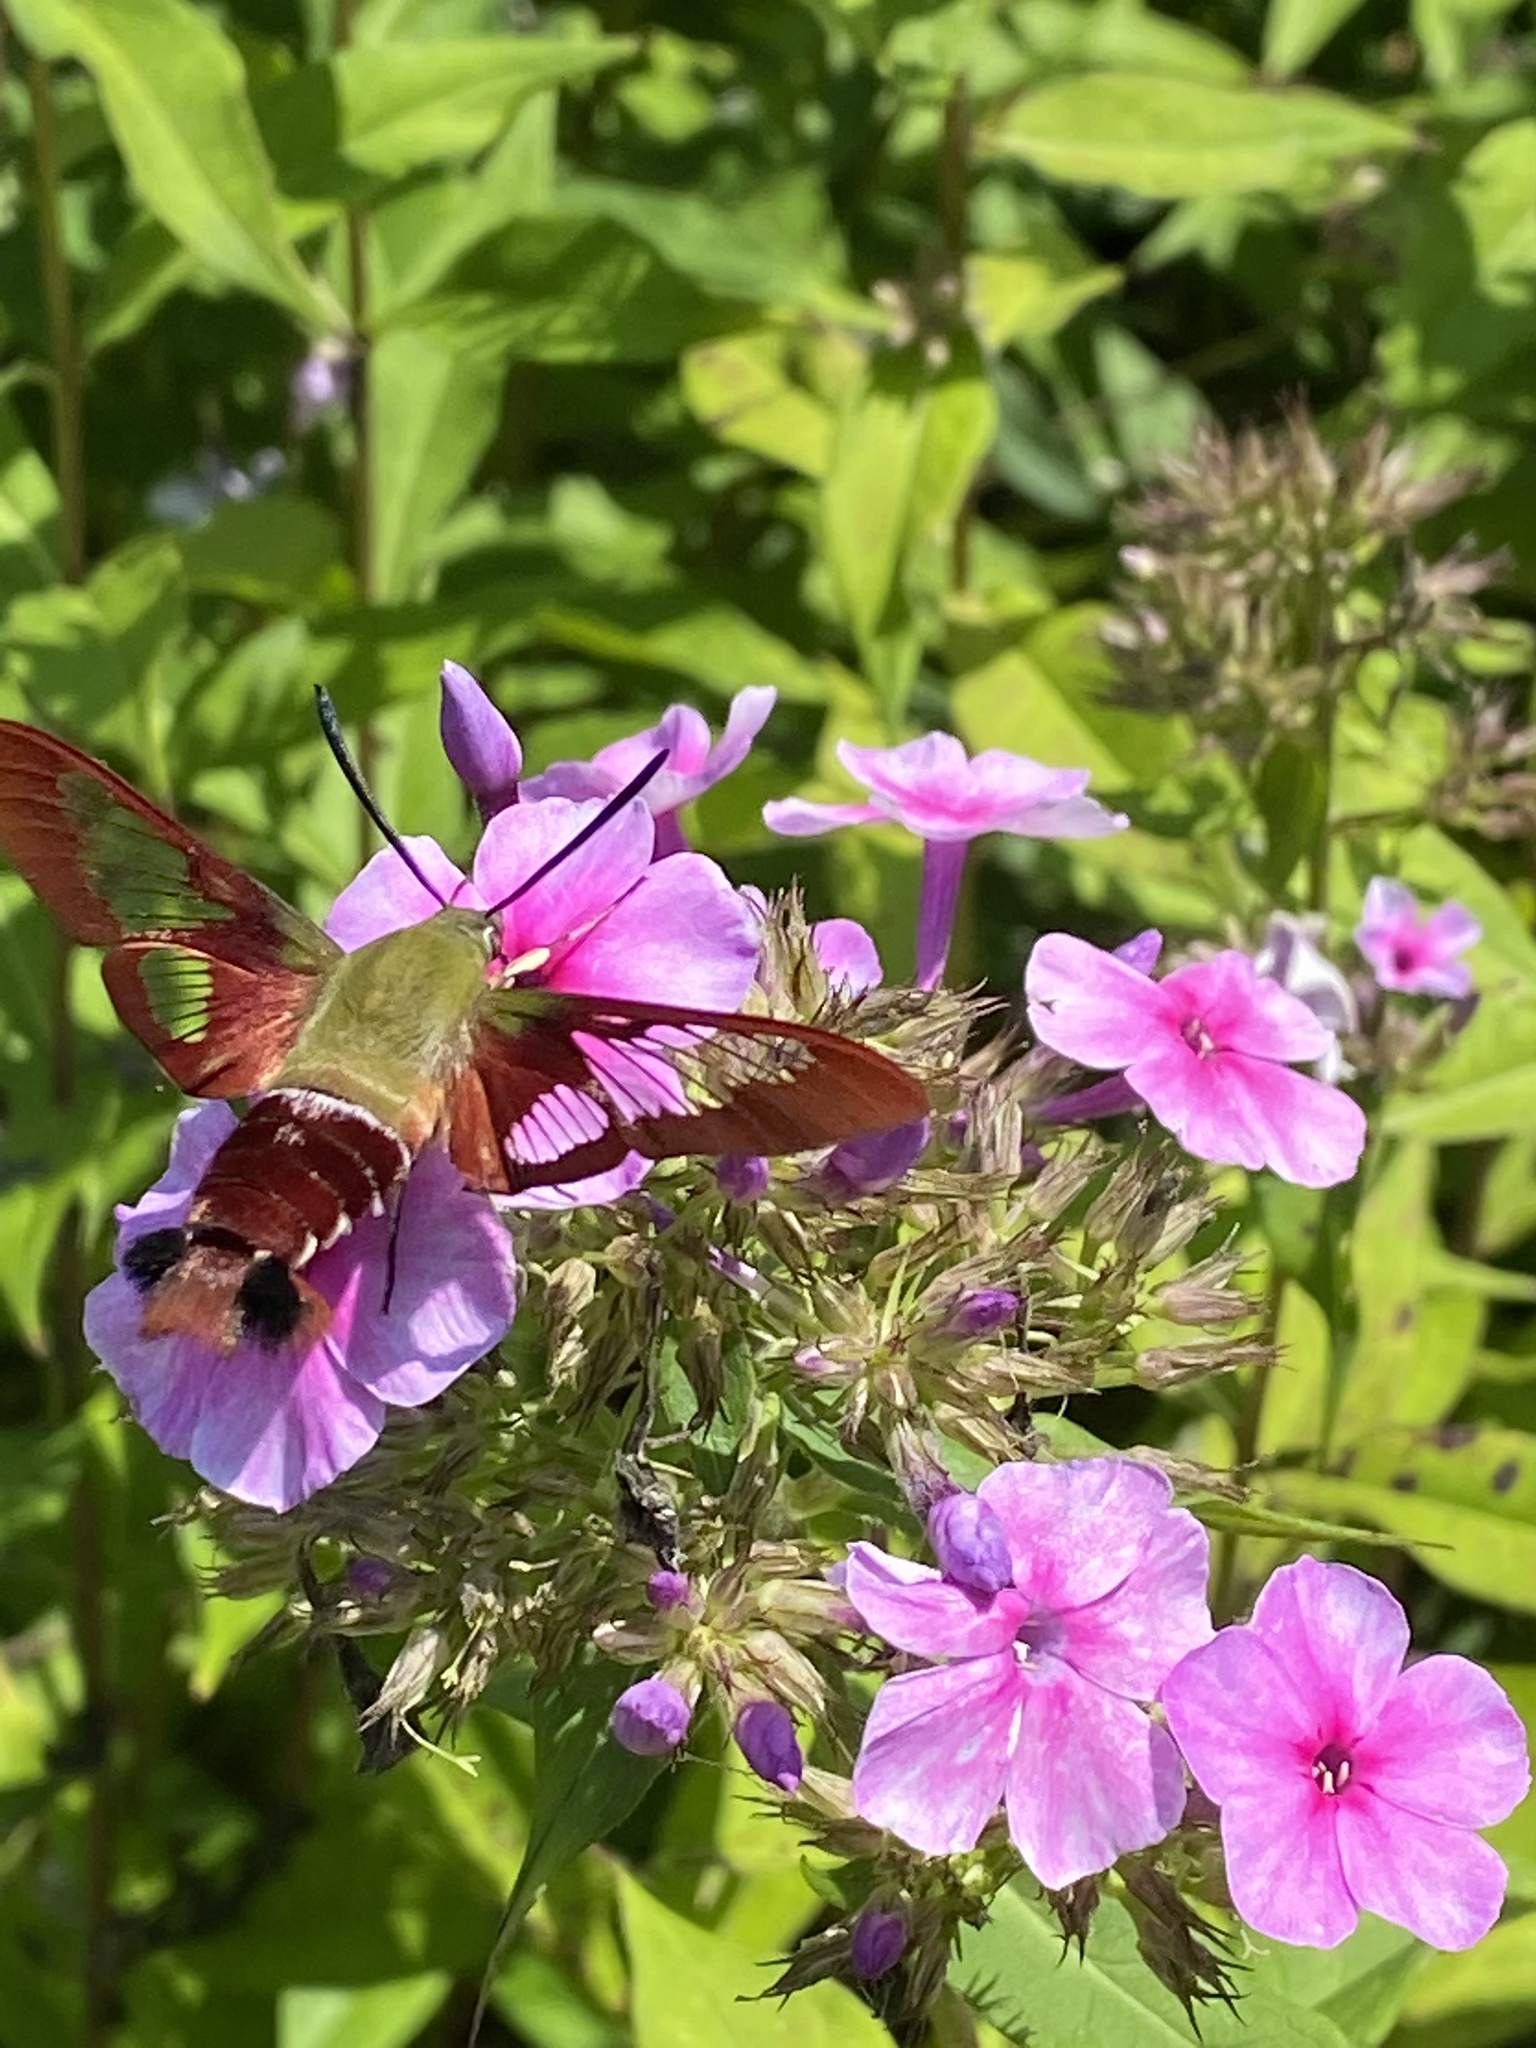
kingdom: Animalia
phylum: Arthropoda
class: Insecta
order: Lepidoptera
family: Sphingidae
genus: Hemaris
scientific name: Hemaris thysbe
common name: Common clear-wing
